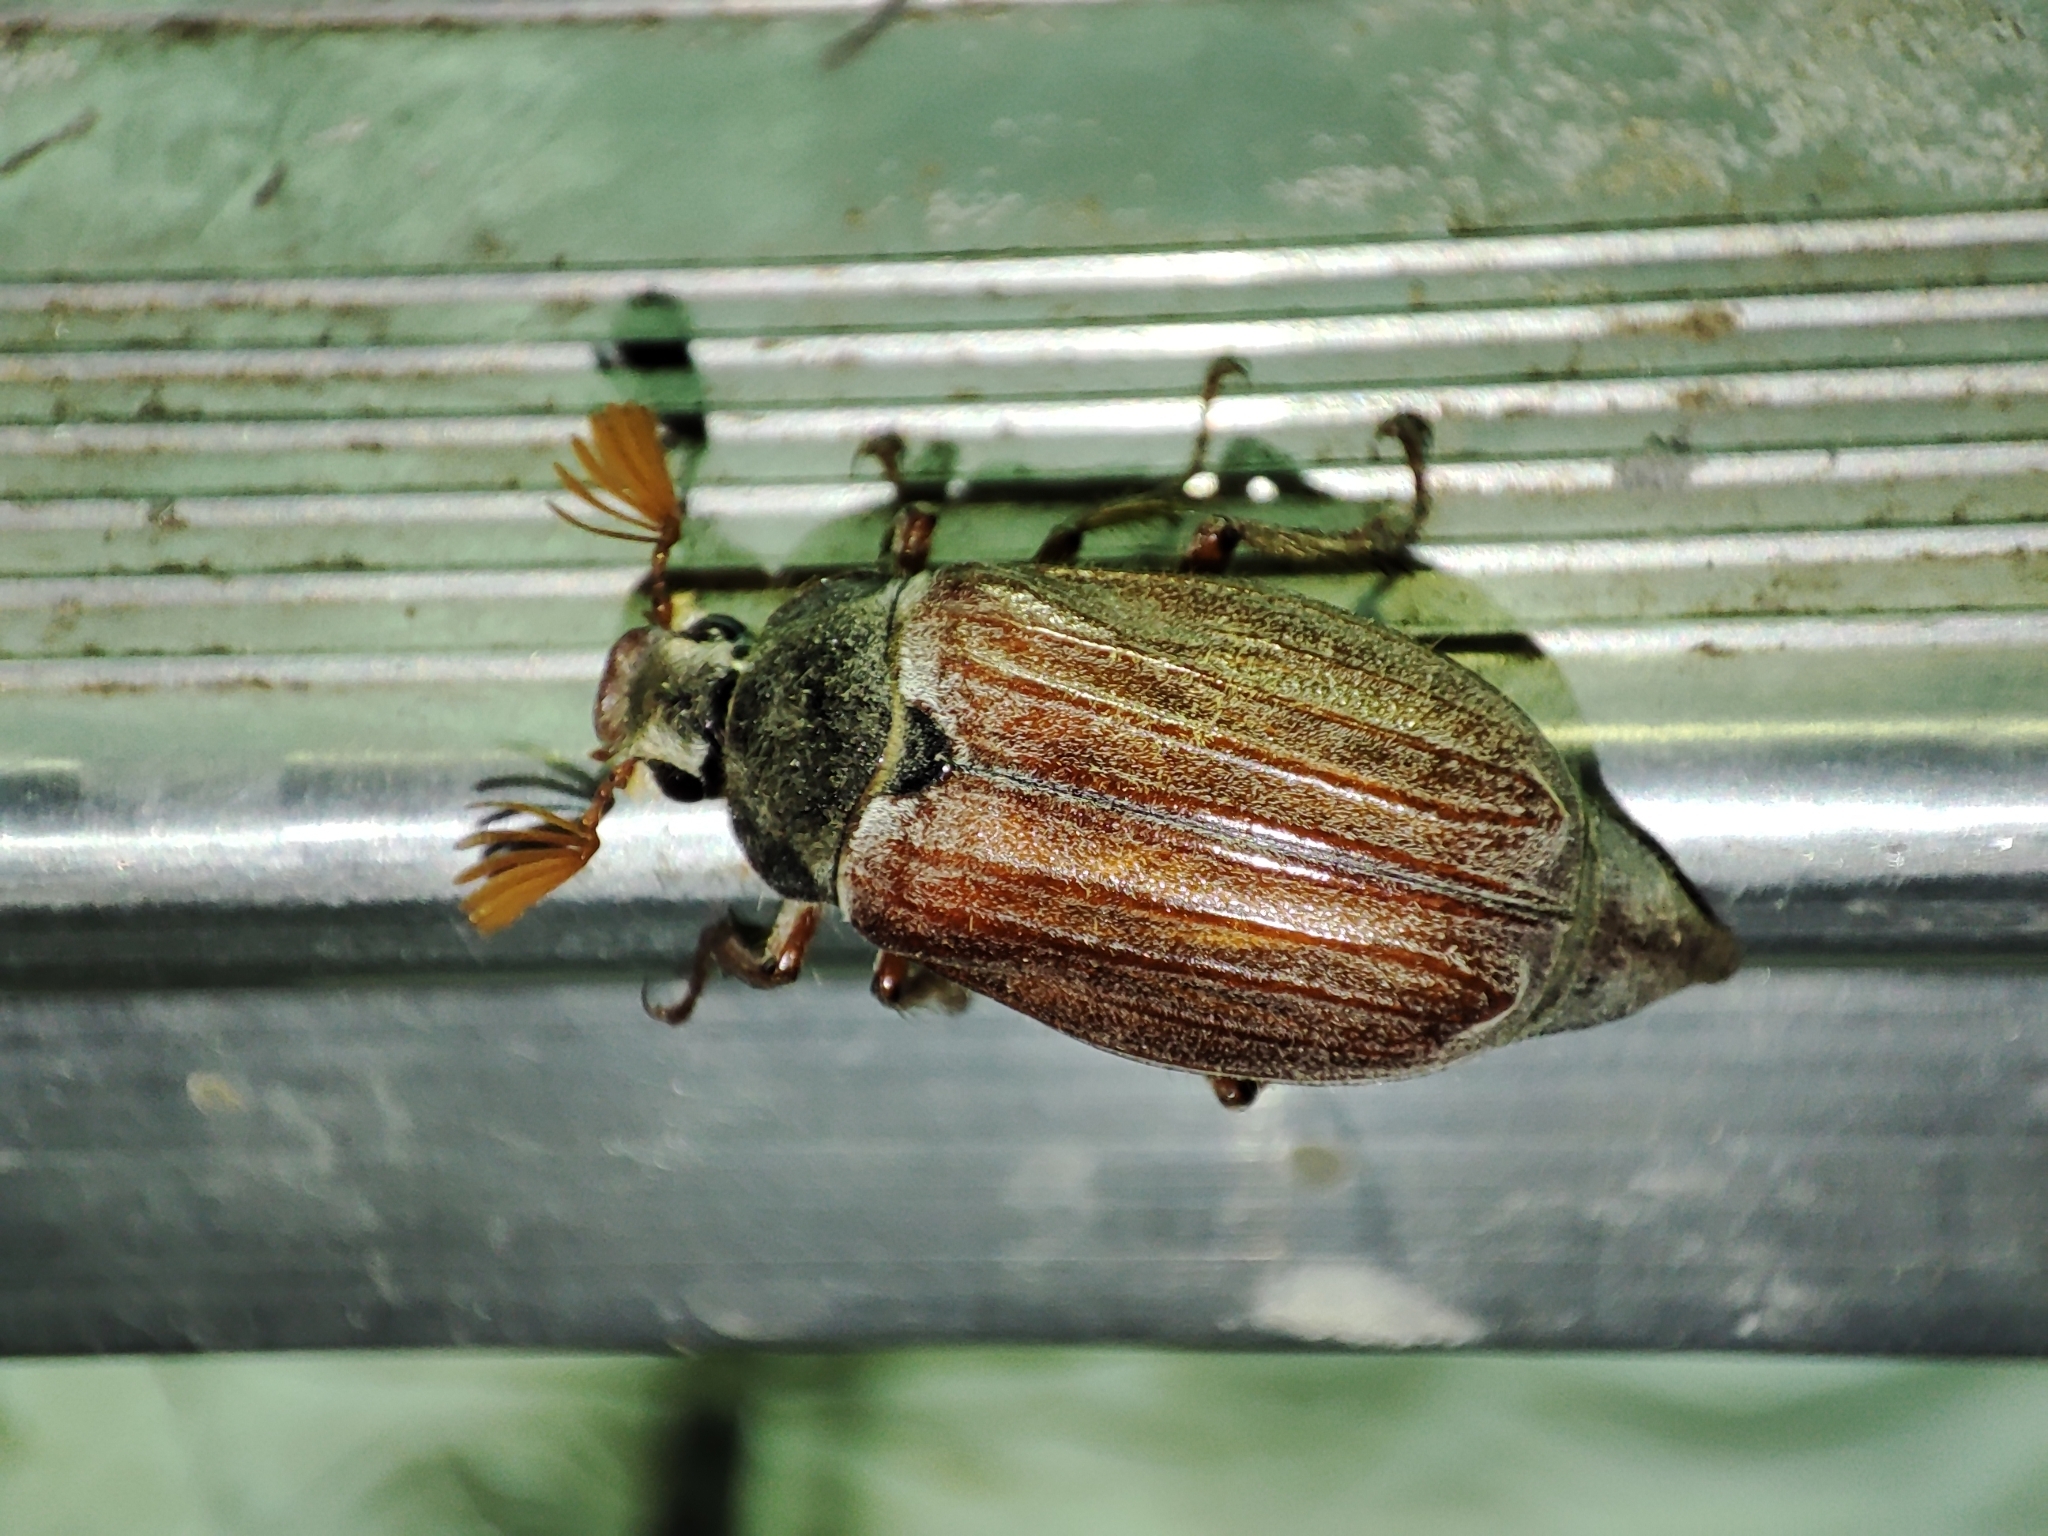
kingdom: Animalia
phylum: Arthropoda
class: Insecta
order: Coleoptera
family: Scarabaeidae
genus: Melolontha
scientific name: Melolontha melolontha
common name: Cockchafer maybeetle
